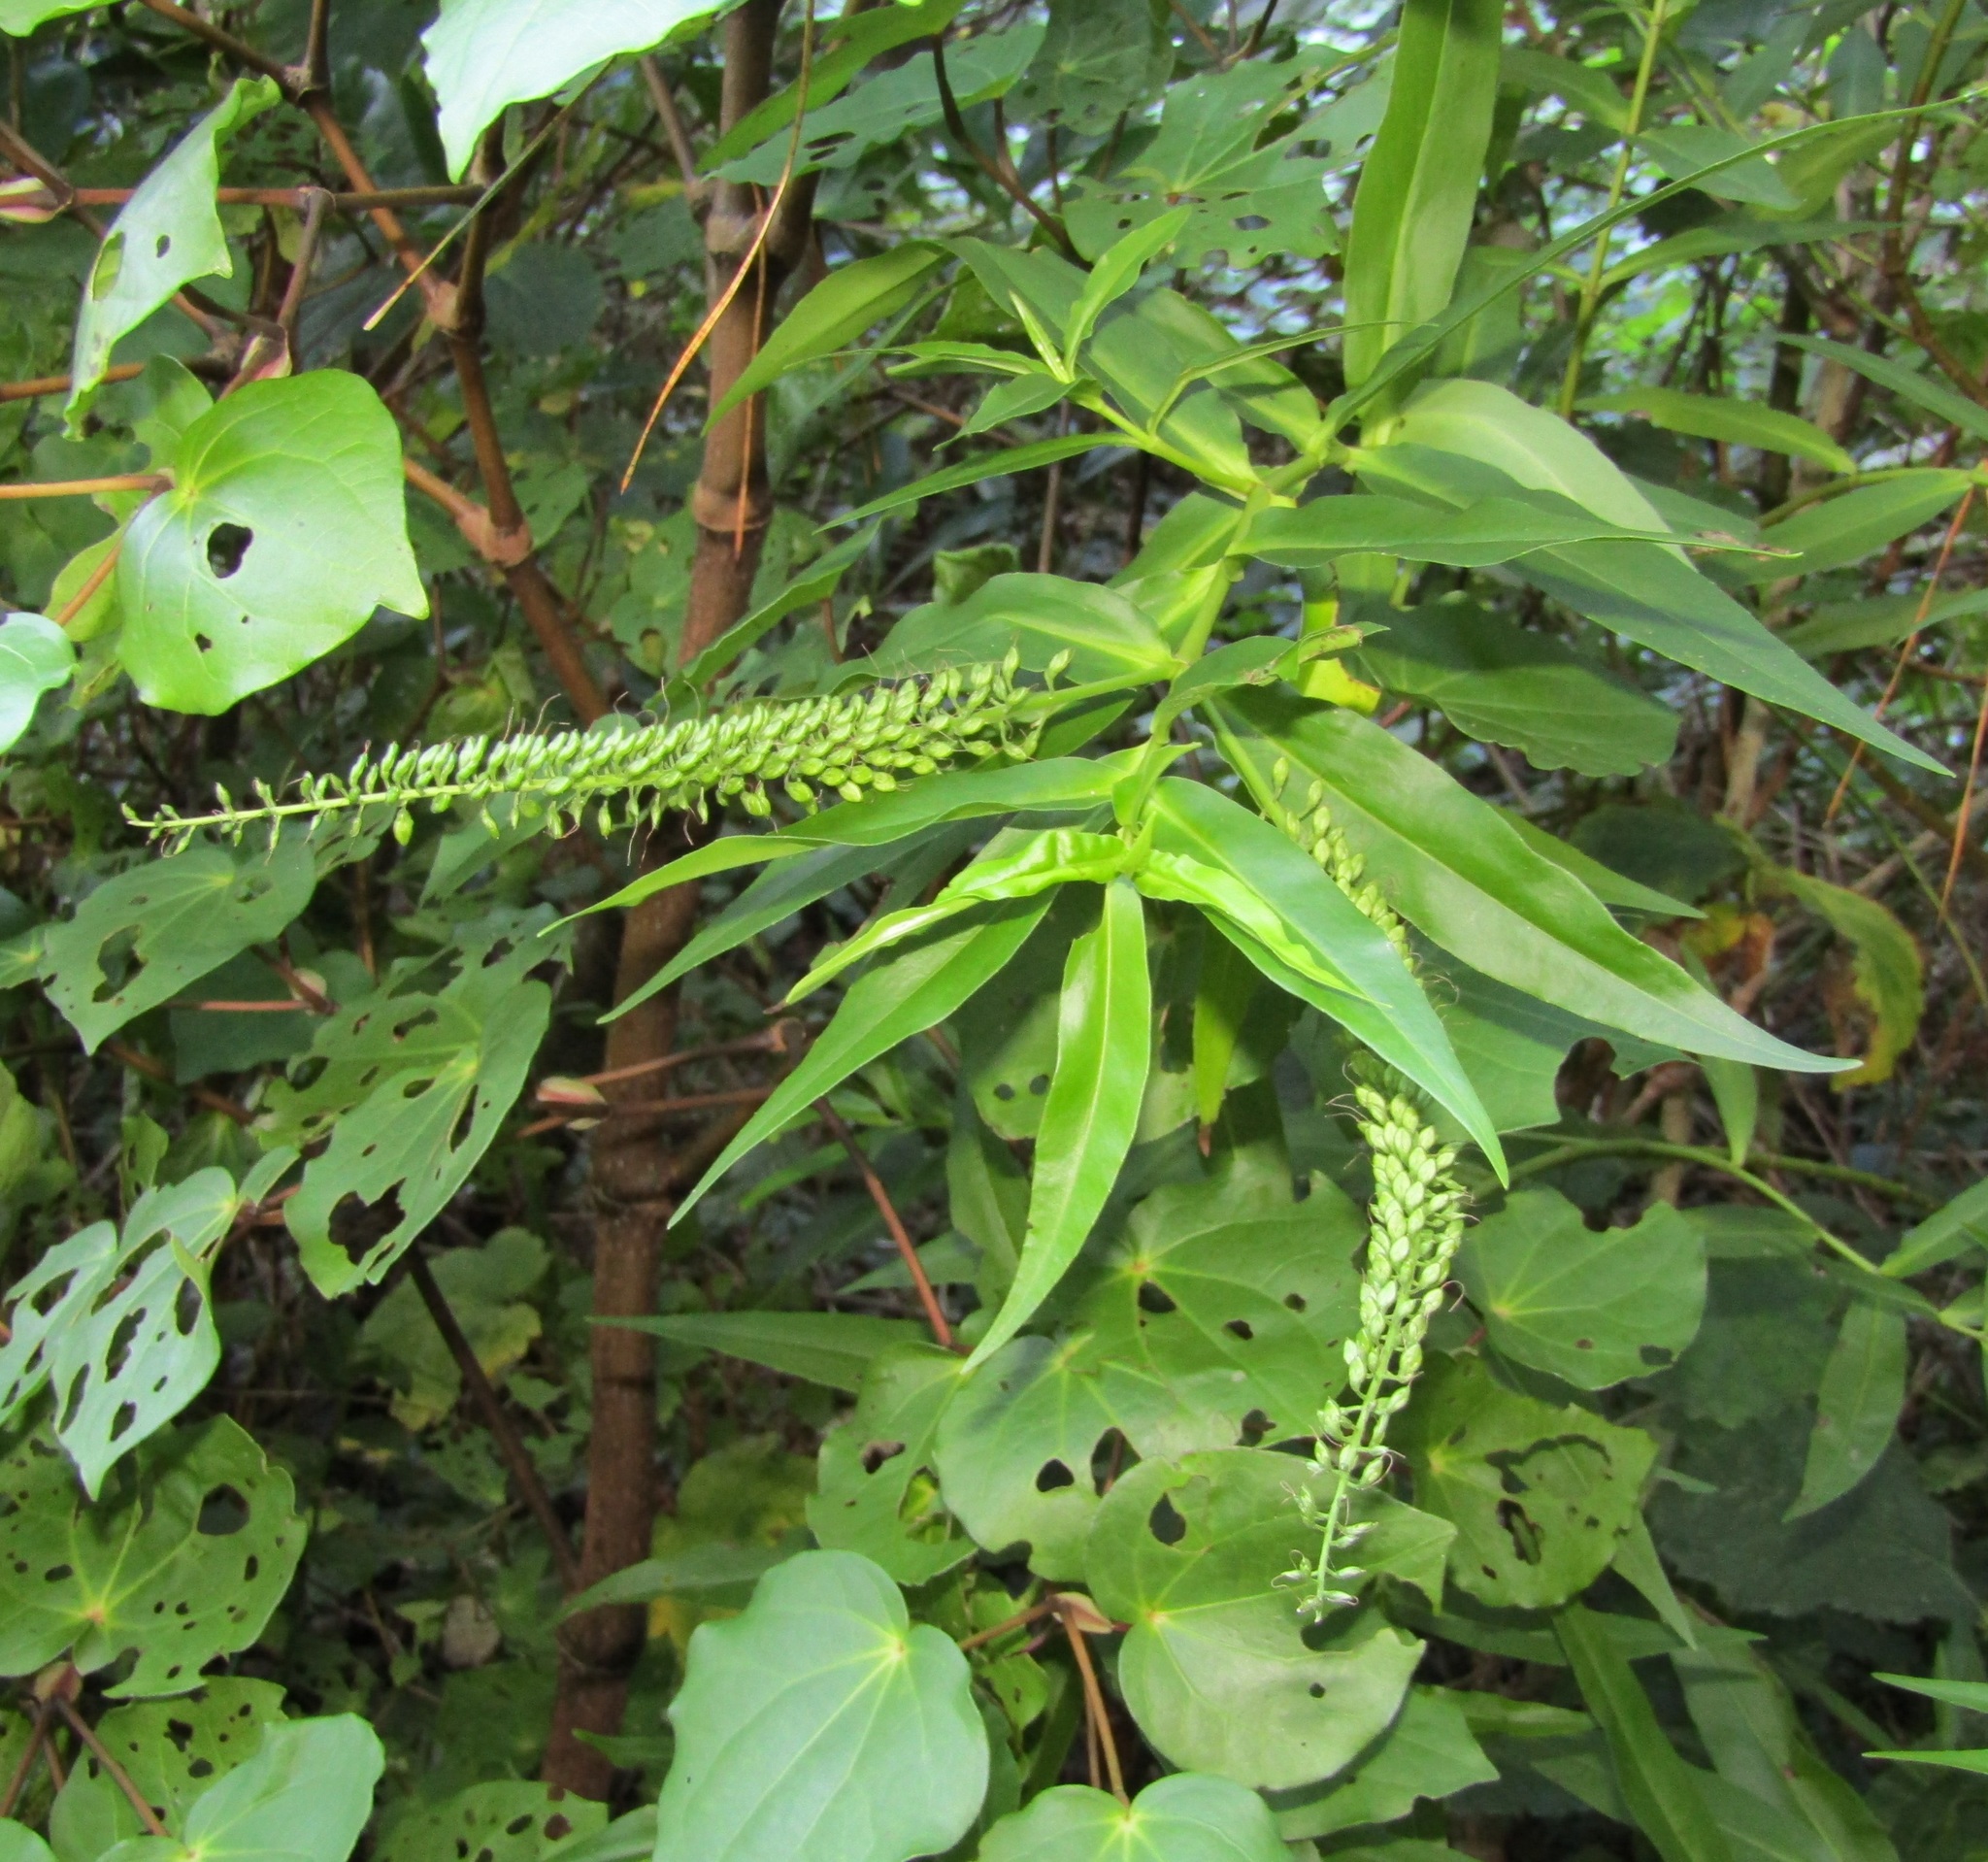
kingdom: Plantae
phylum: Tracheophyta
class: Magnoliopsida
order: Lamiales
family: Plantaginaceae
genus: Veronica
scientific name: Veronica stricta
